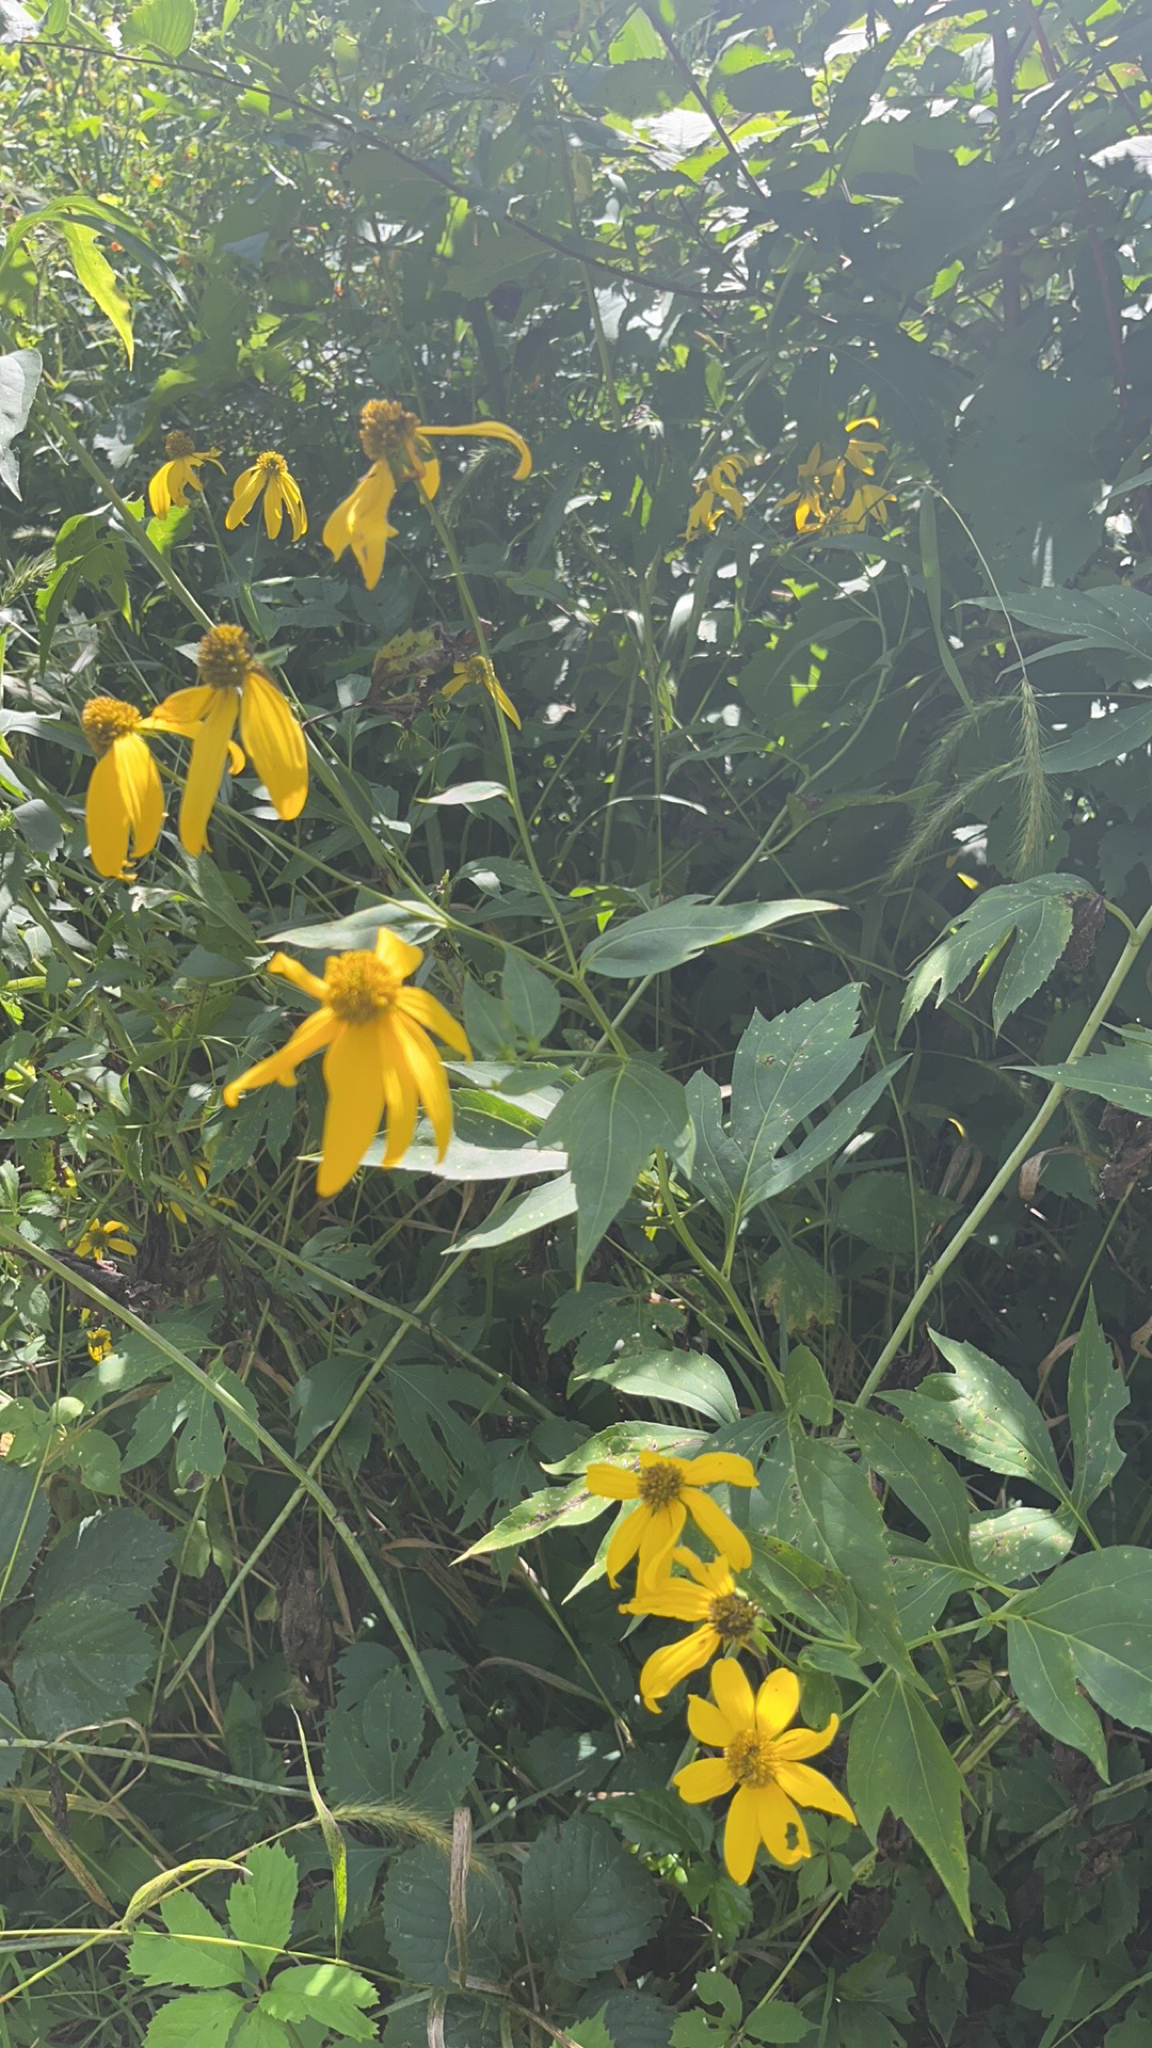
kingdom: Plantae
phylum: Tracheophyta
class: Magnoliopsida
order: Asterales
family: Asteraceae
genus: Rudbeckia
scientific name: Rudbeckia laciniata
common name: Coneflower
